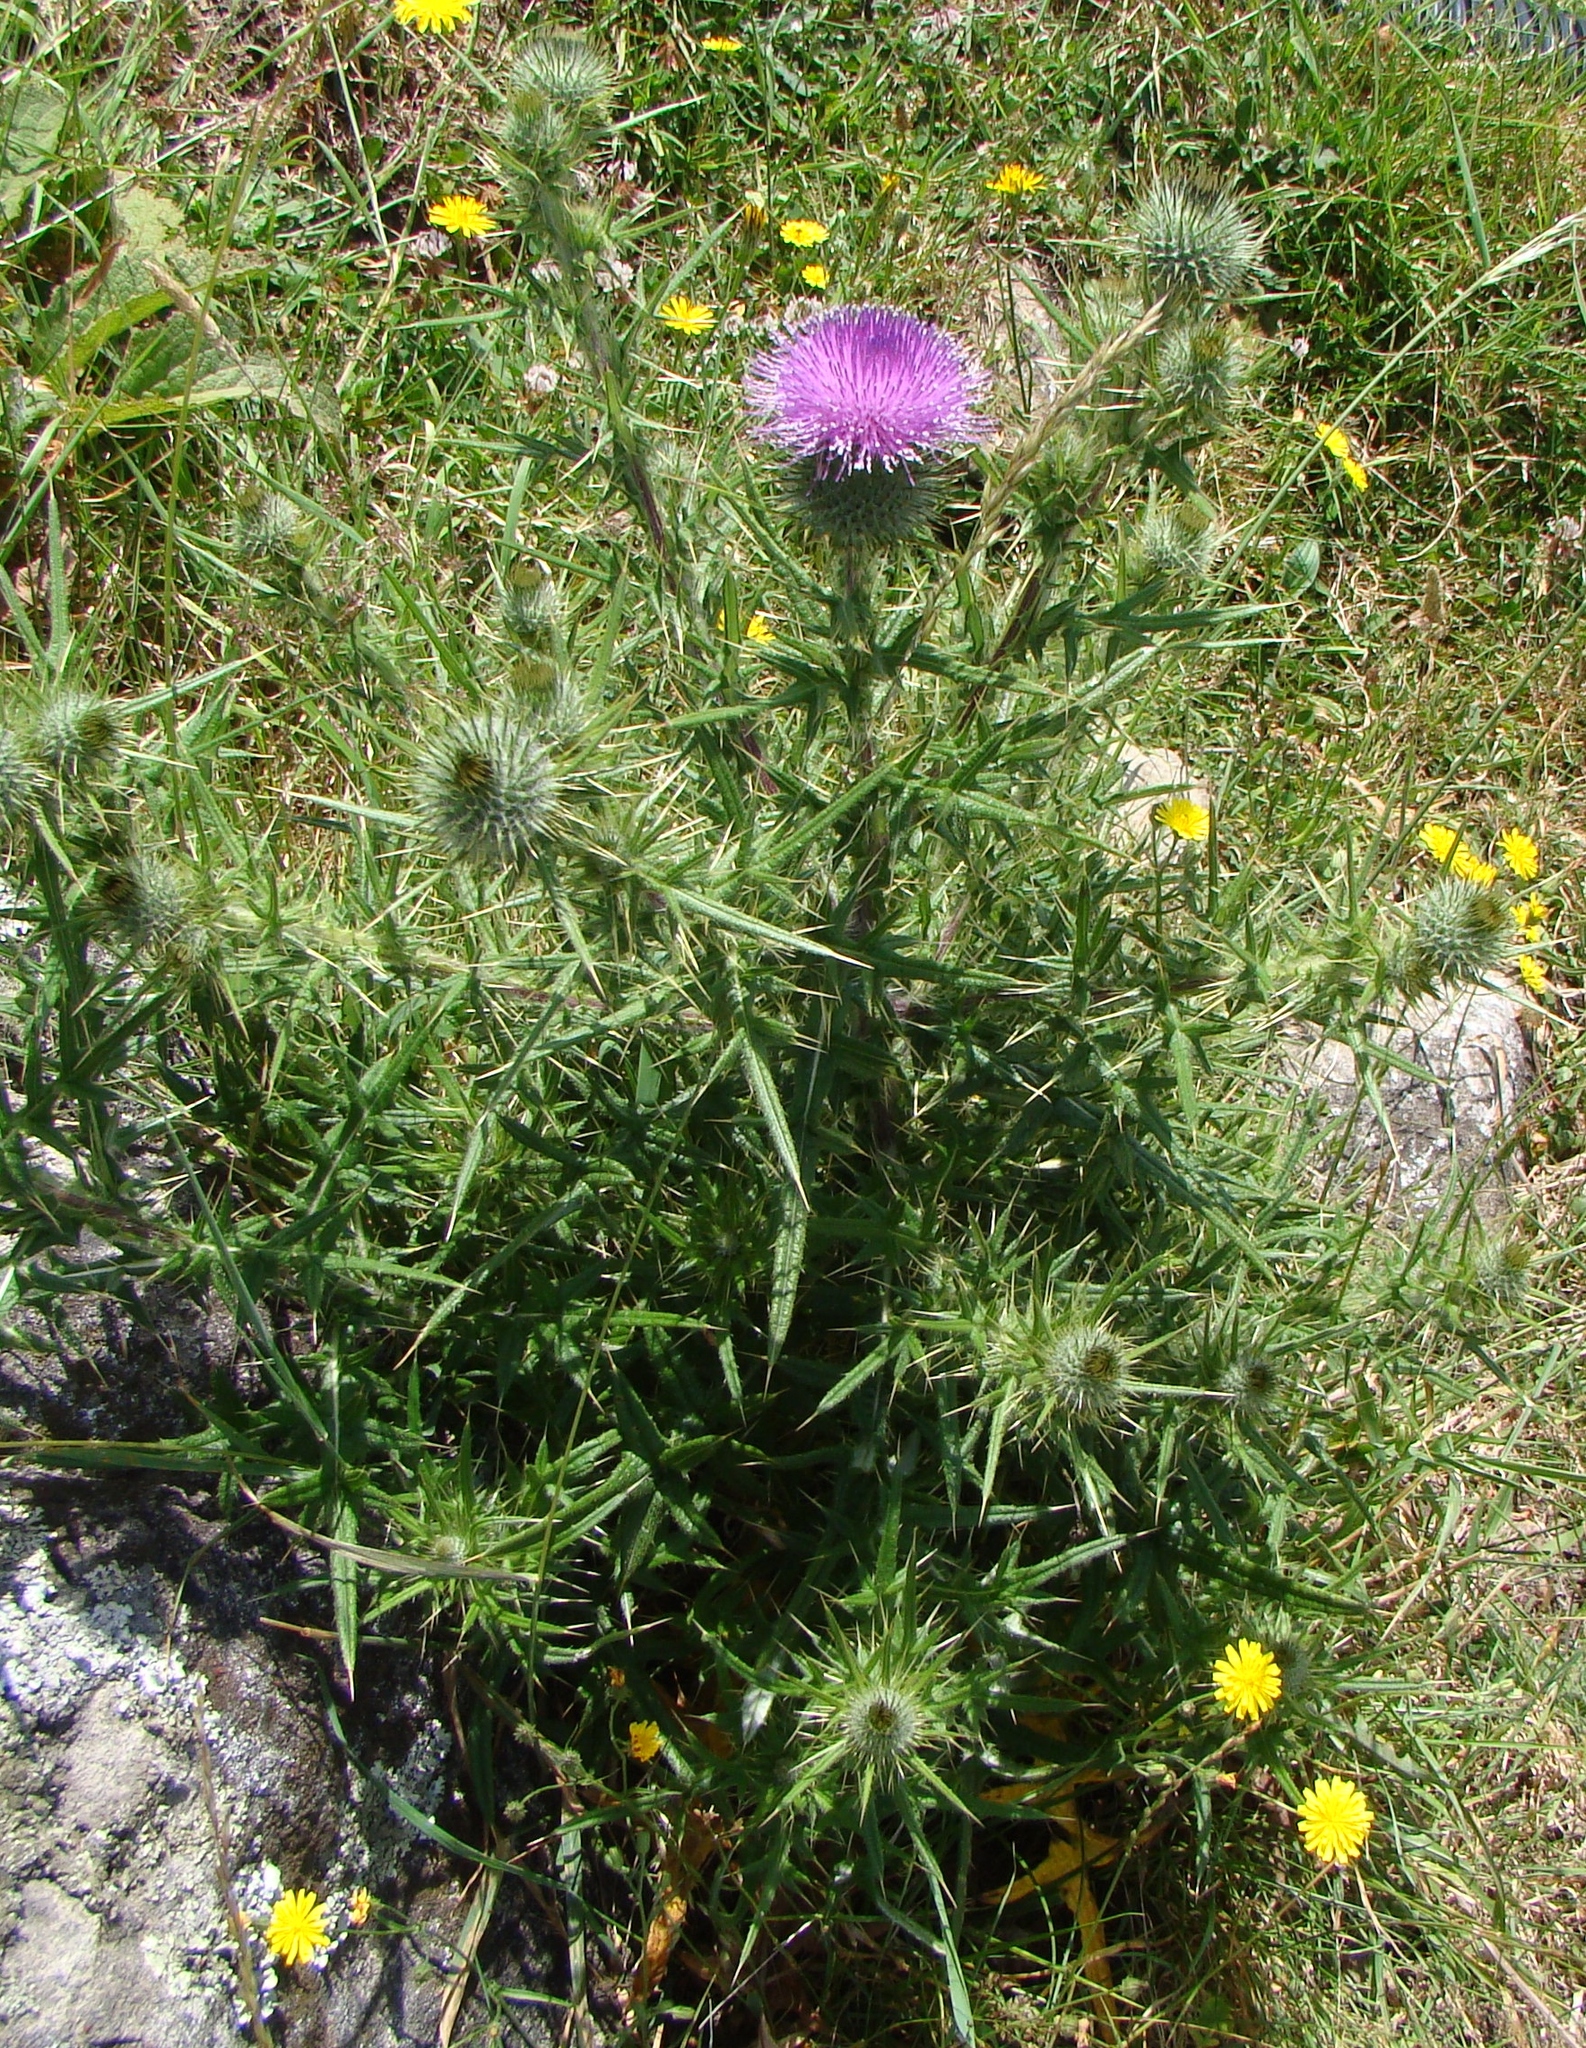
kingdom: Plantae
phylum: Tracheophyta
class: Magnoliopsida
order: Asterales
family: Asteraceae
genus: Cirsium
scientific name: Cirsium vulgare
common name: Bull thistle
